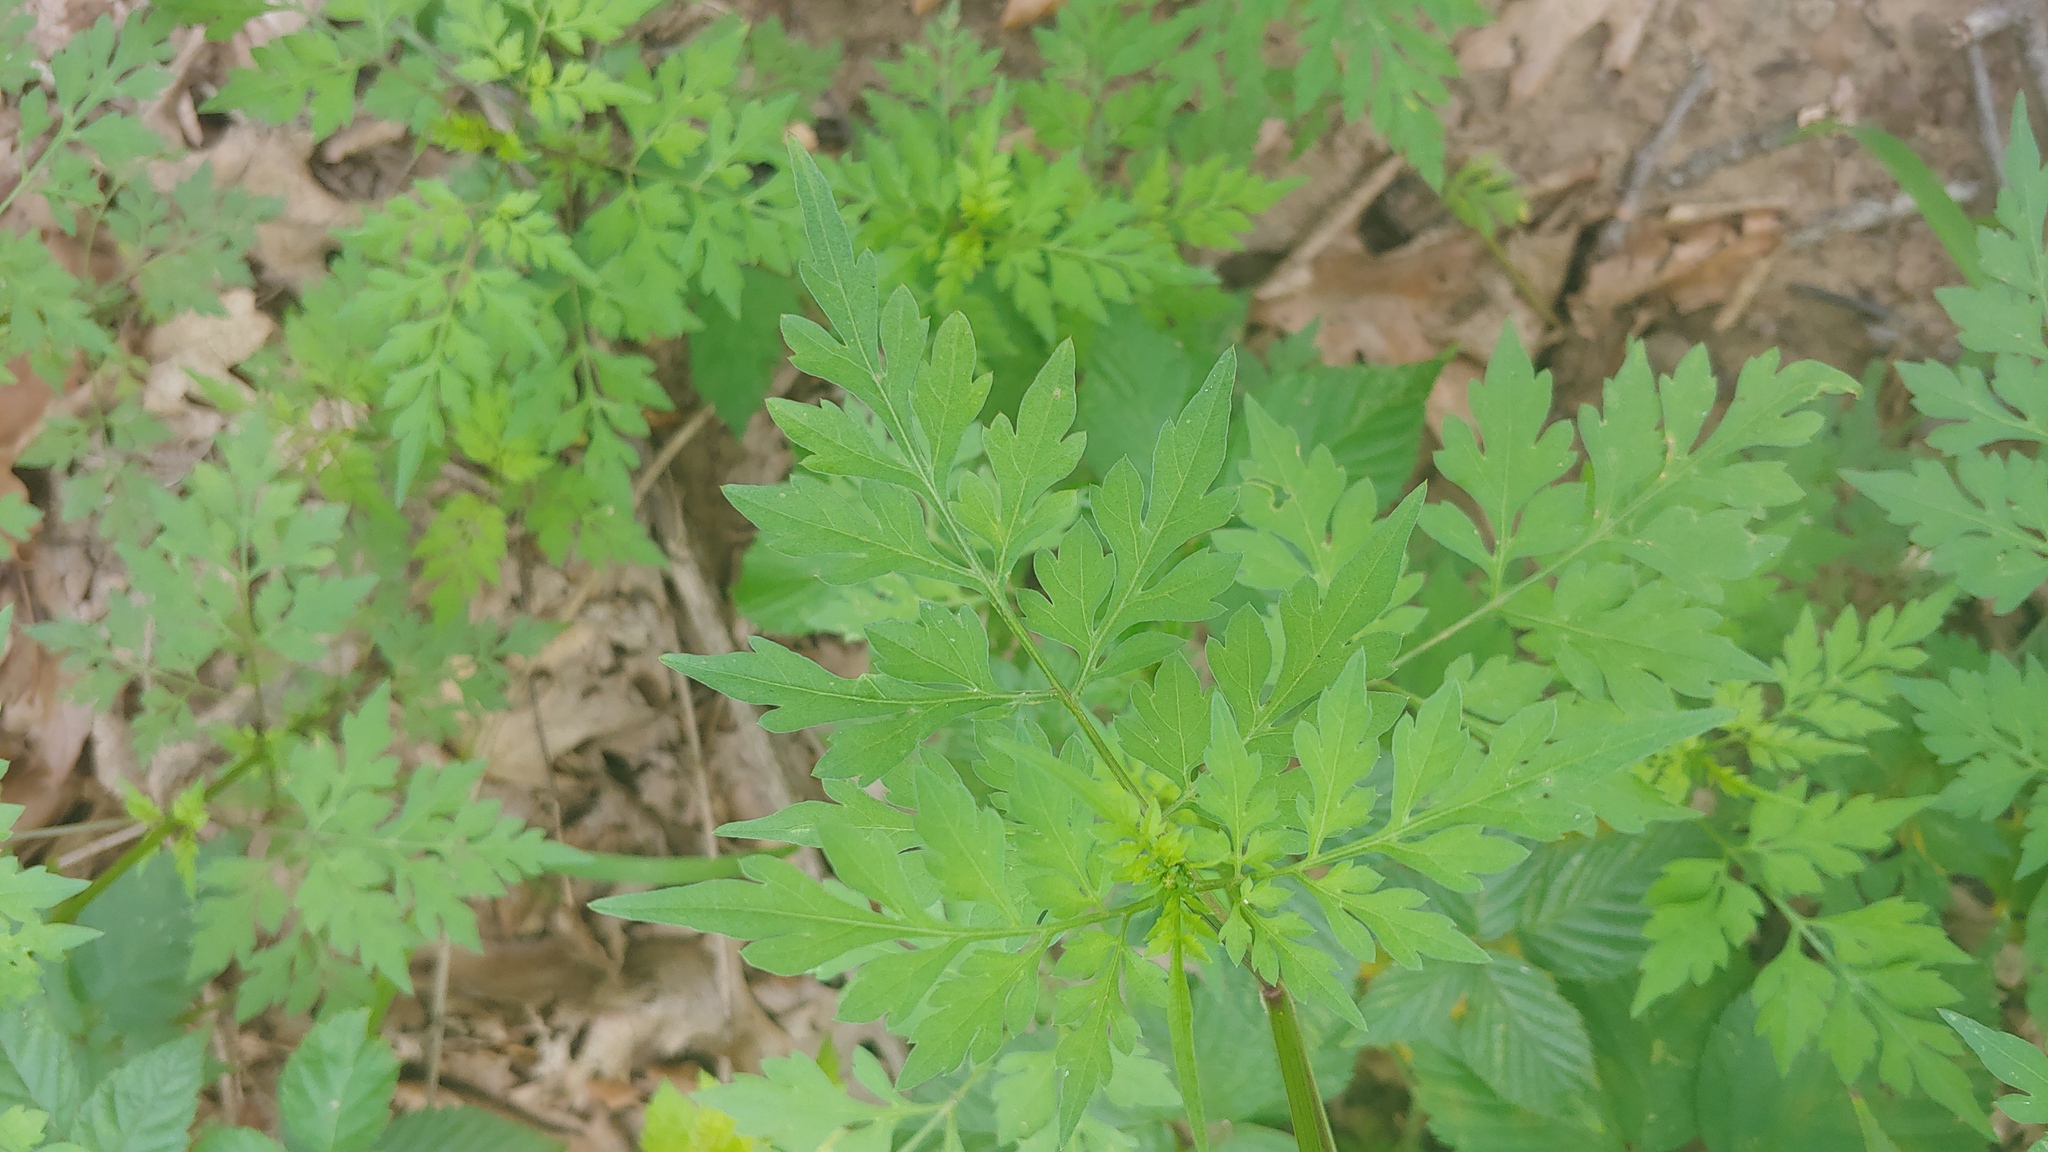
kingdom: Plantae
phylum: Tracheophyta
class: Magnoliopsida
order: Asterales
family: Asteraceae
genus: Bidens
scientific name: Bidens bipinnata
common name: Spanish-needles
